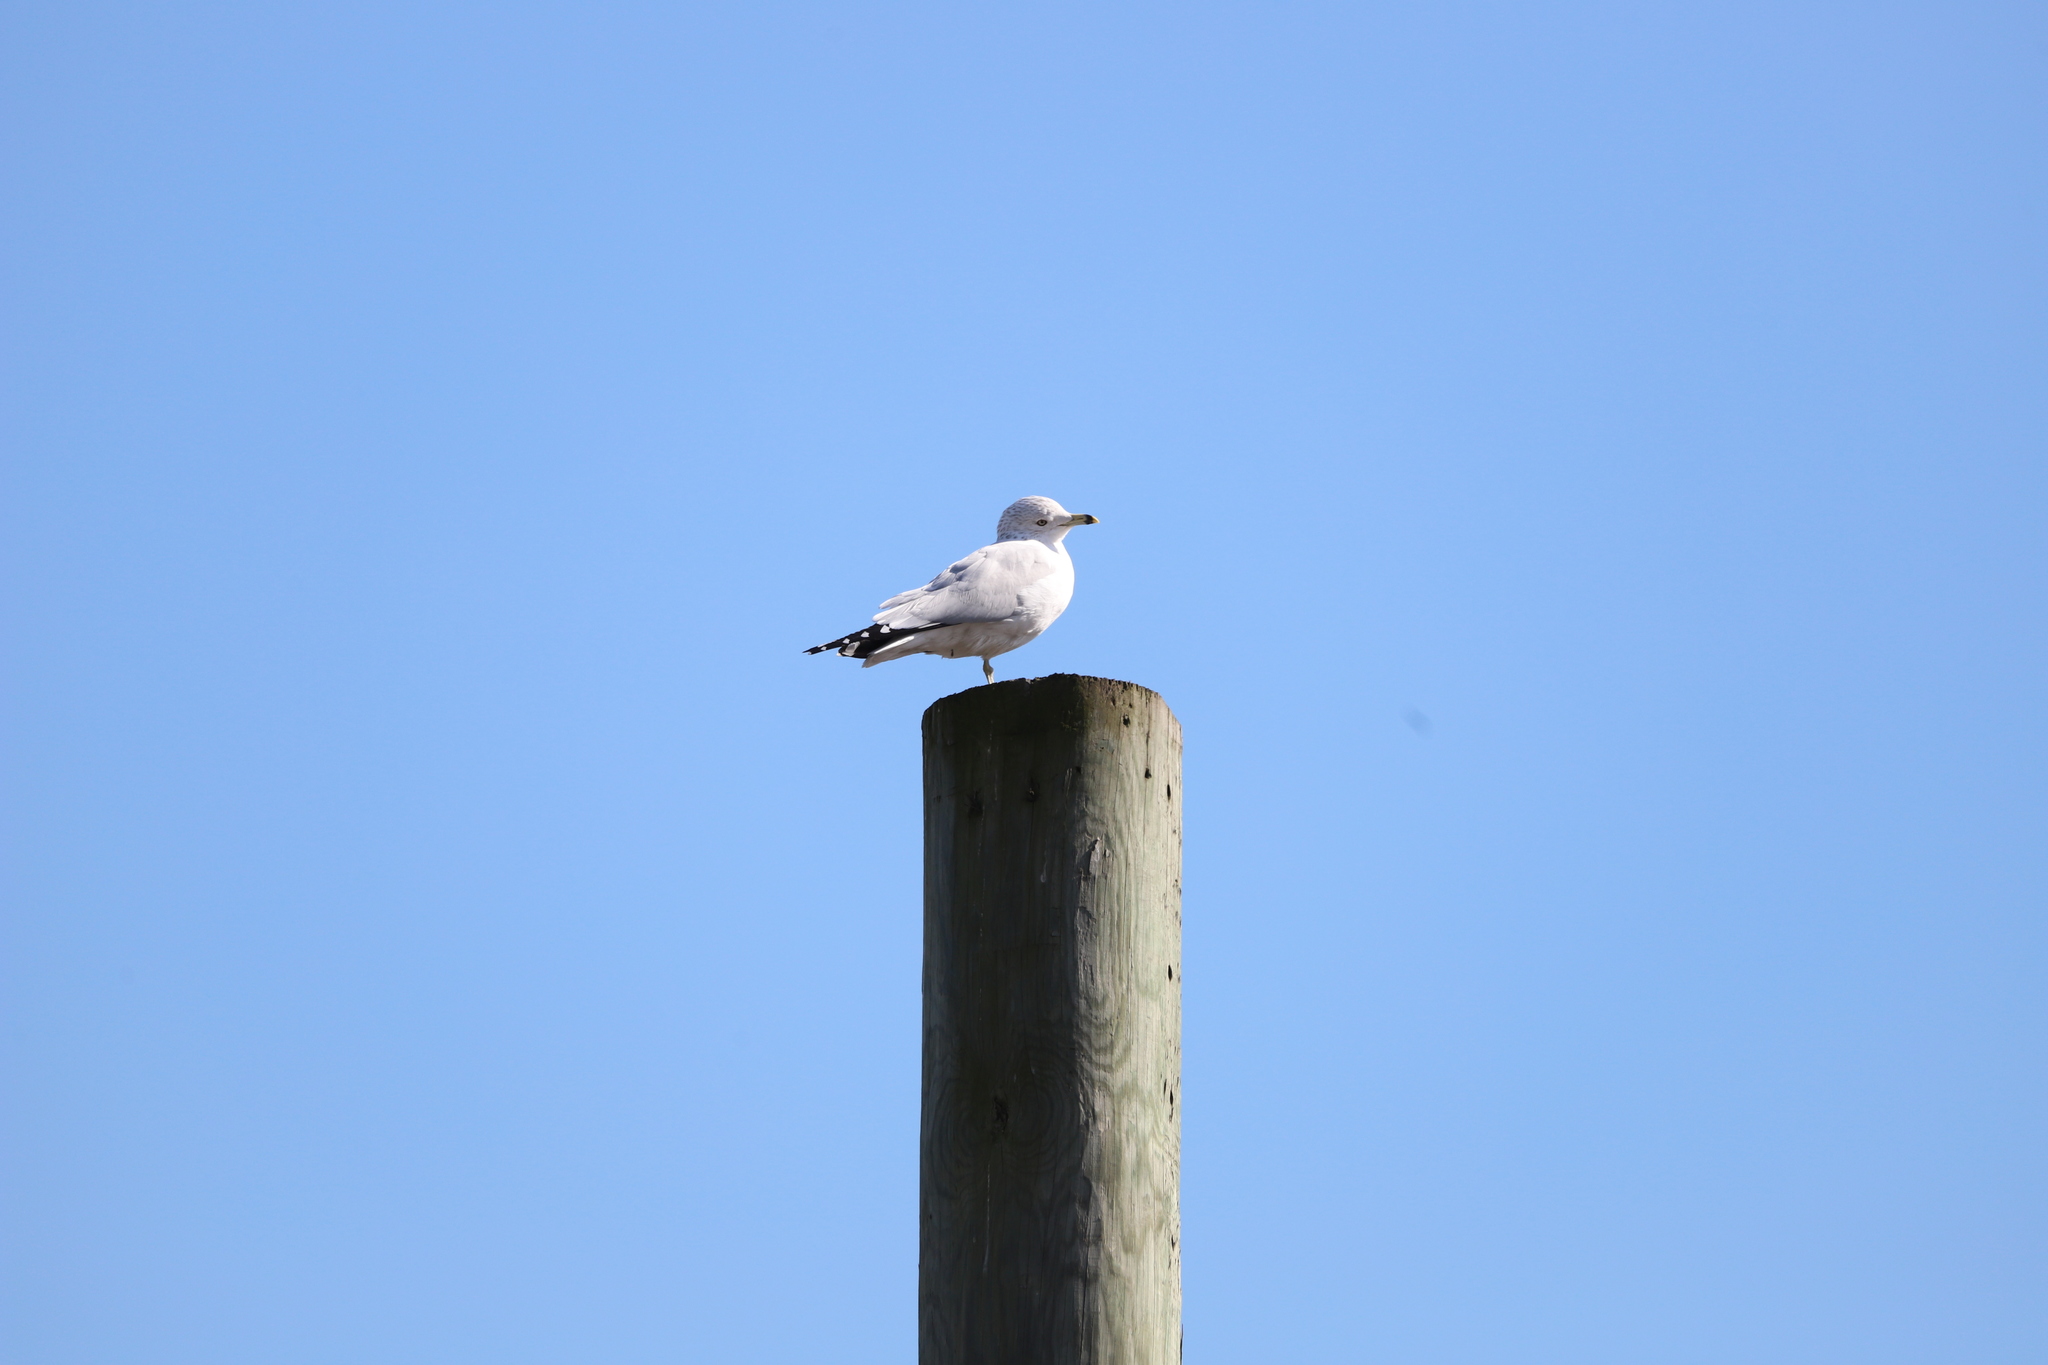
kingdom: Animalia
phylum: Chordata
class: Aves
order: Charadriiformes
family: Laridae
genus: Larus
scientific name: Larus delawarensis
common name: Ring-billed gull
